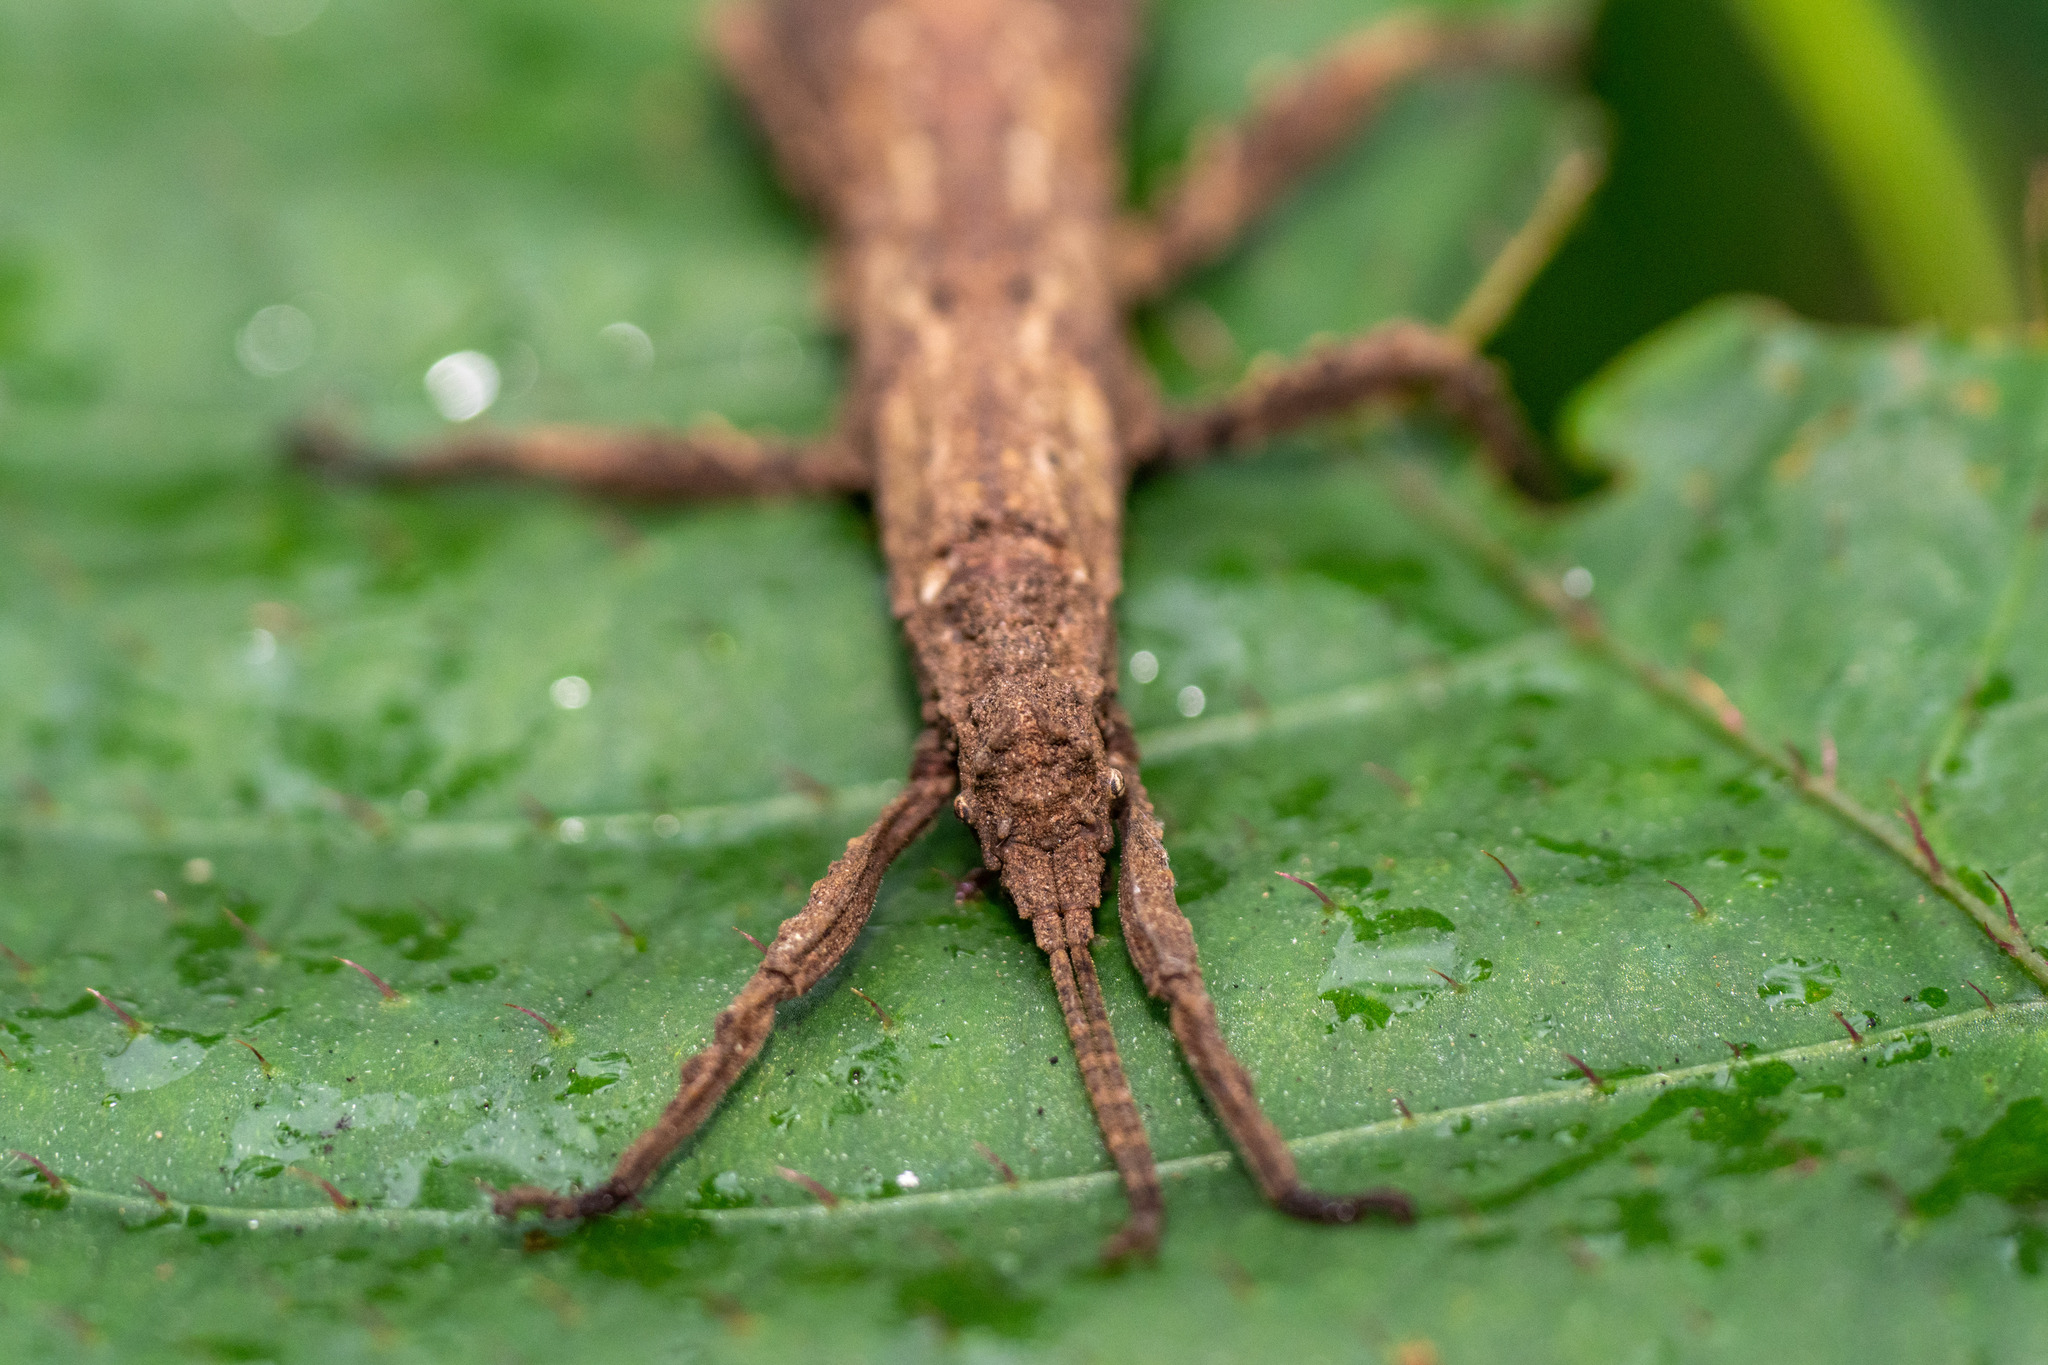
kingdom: Animalia
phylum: Arthropoda
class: Insecta
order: Phasmida
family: Heteropterygidae
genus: Orestes
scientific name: Orestes guangxiensis
